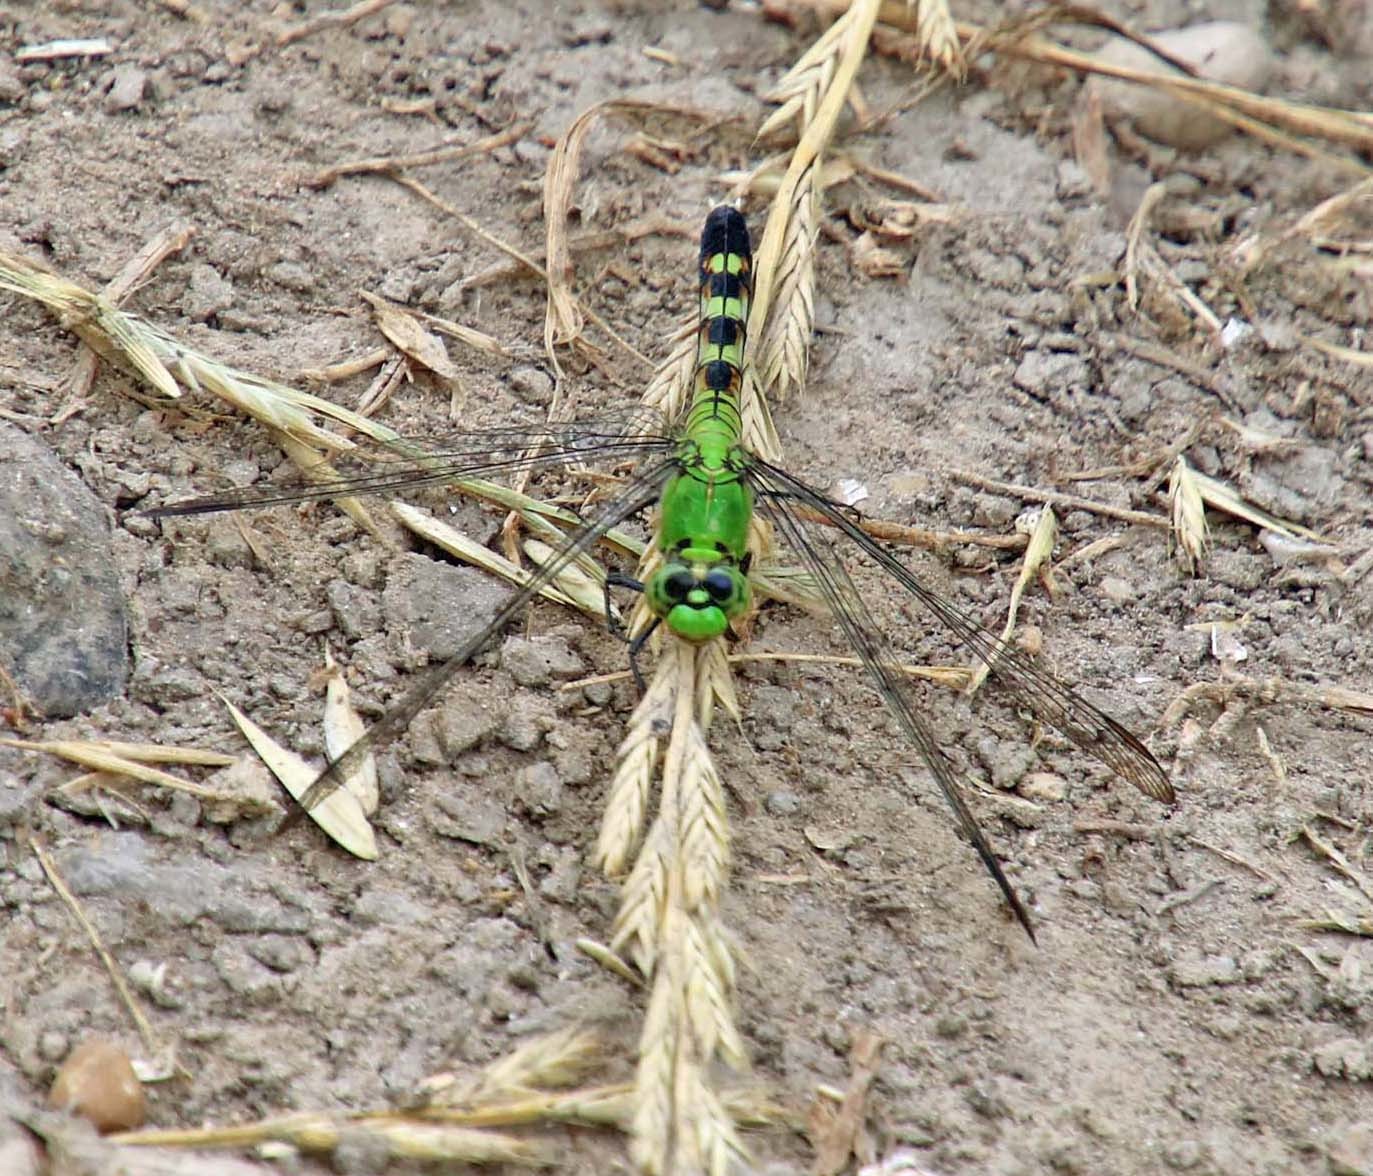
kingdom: Animalia
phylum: Arthropoda
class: Insecta
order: Odonata
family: Libellulidae
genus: Erythemis
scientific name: Erythemis simplicicollis
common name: Eastern pondhawk
